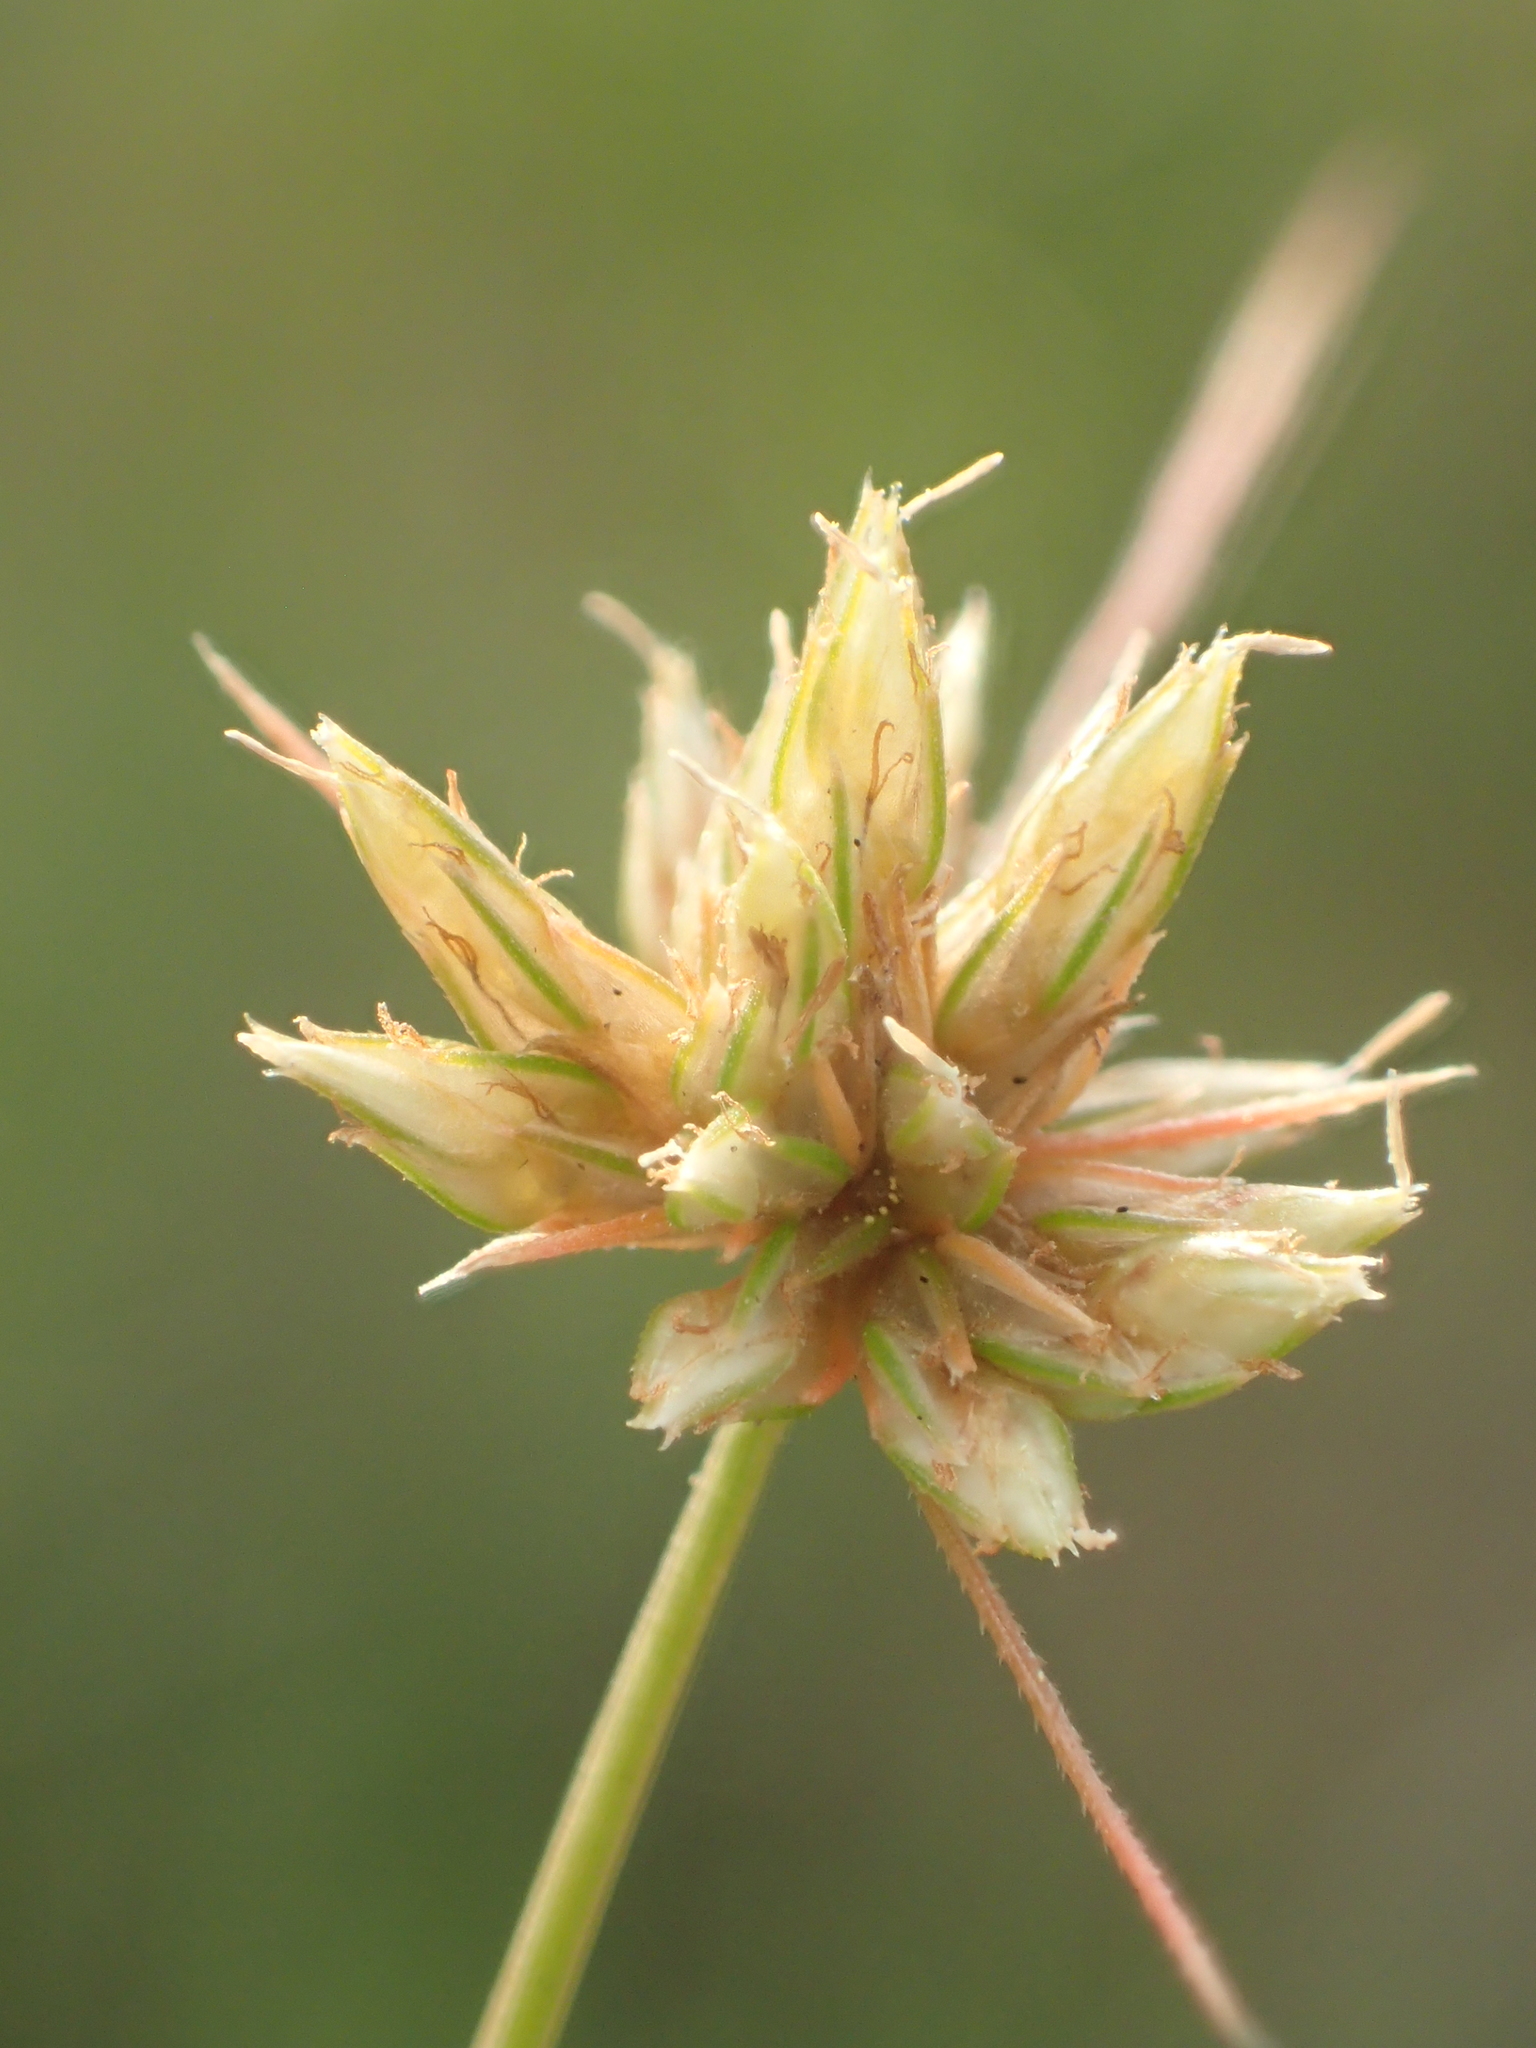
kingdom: Plantae
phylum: Tracheophyta
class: Liliopsida
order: Poales
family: Cyperaceae
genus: Bulbostylis
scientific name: Bulbostylis barbata
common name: Watergrass
